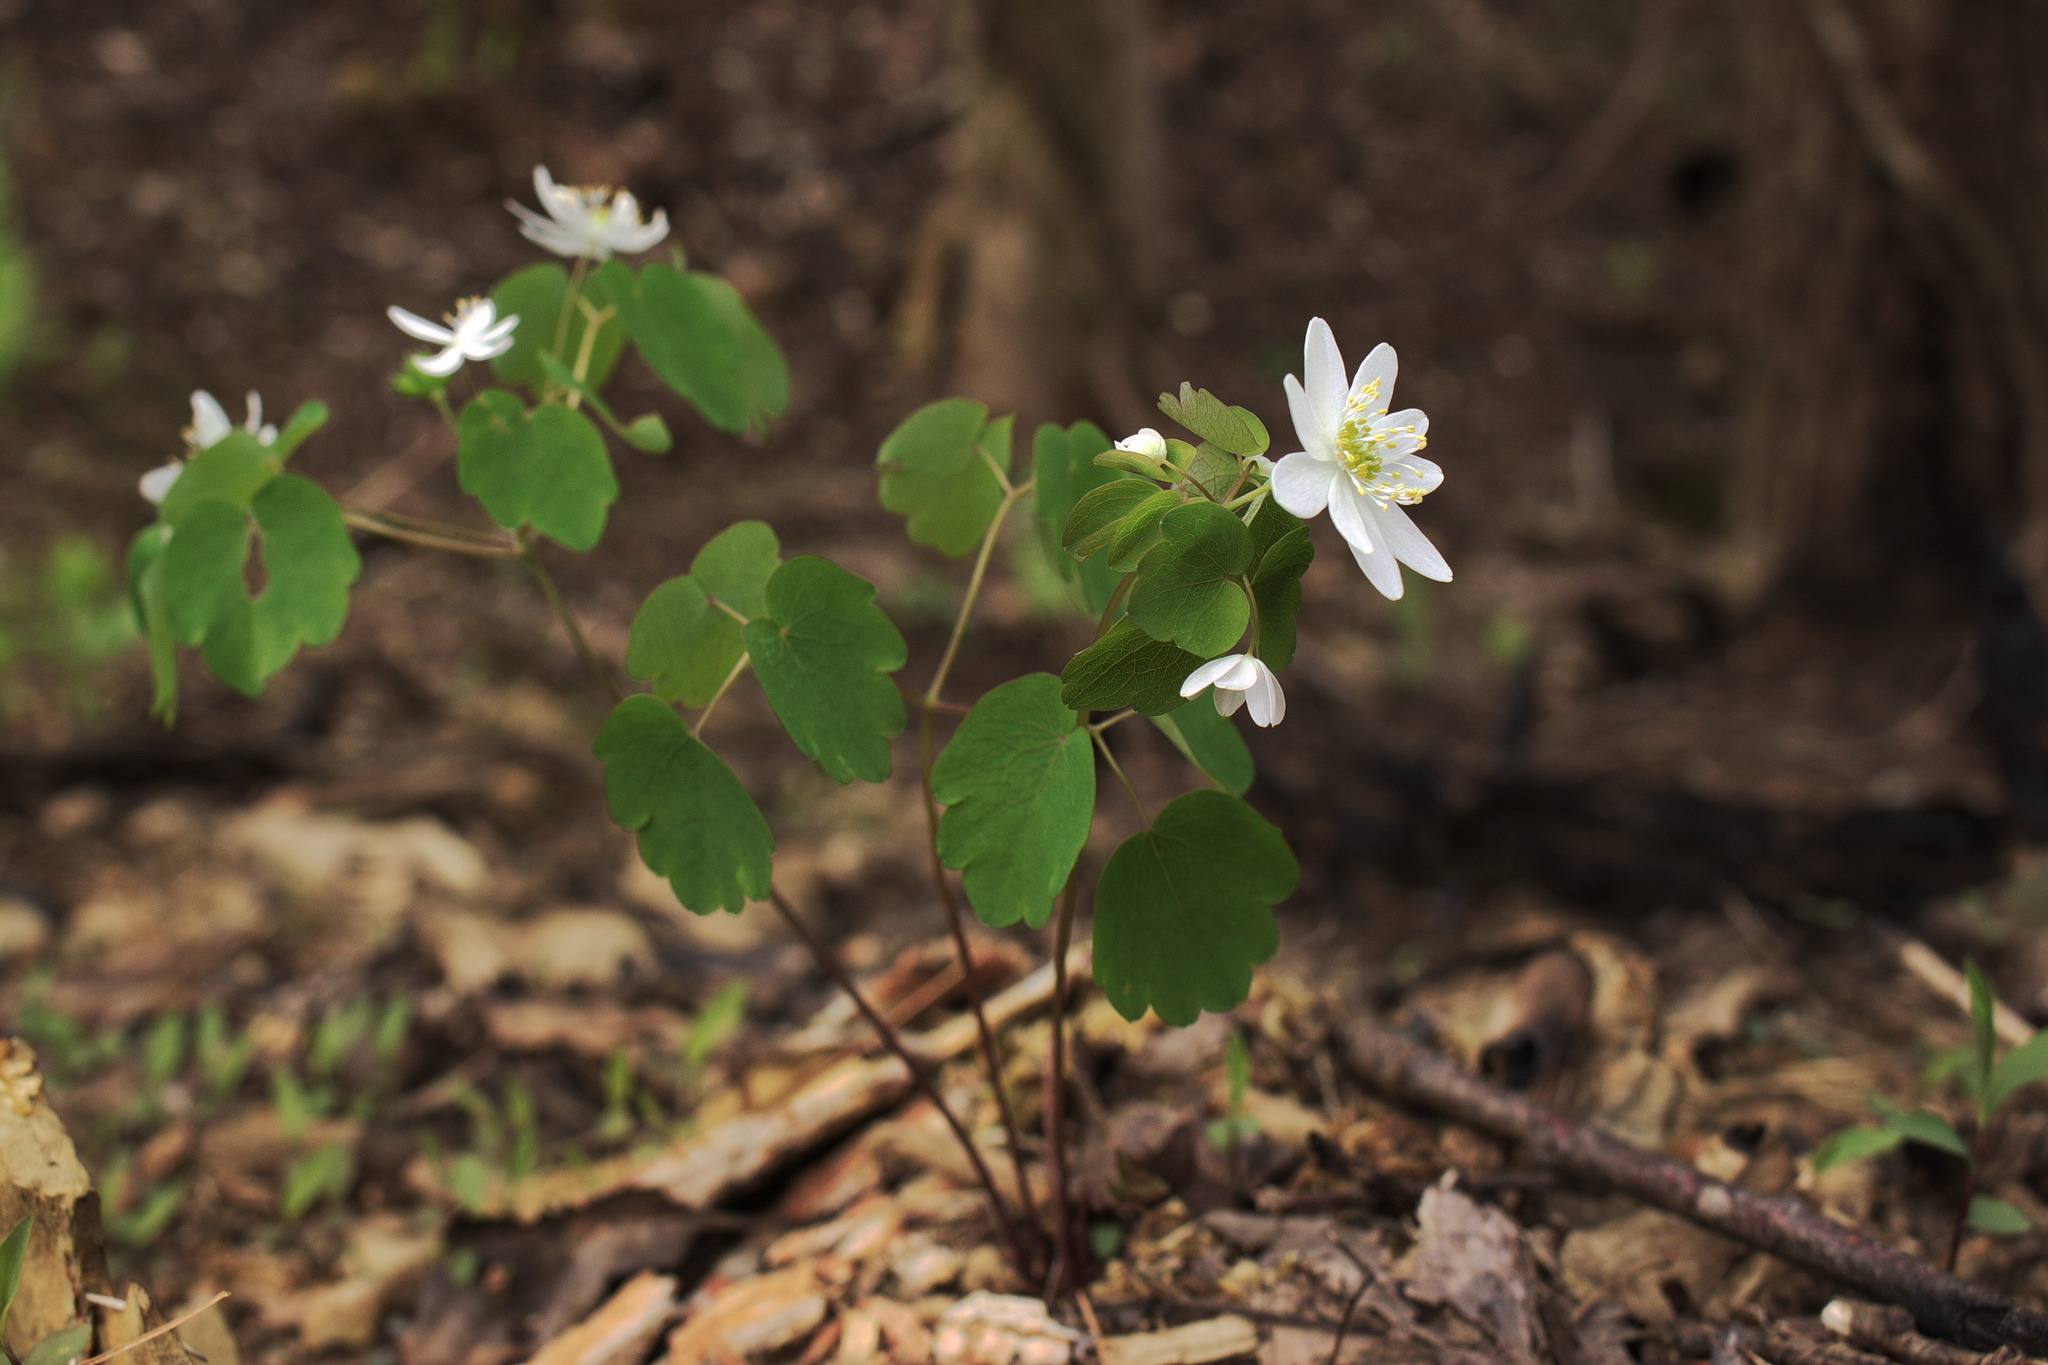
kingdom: Plantae
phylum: Tracheophyta
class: Magnoliopsida
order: Ranunculales
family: Ranunculaceae
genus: Thalictrum
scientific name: Thalictrum thalictroides
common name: Rue-anemone
